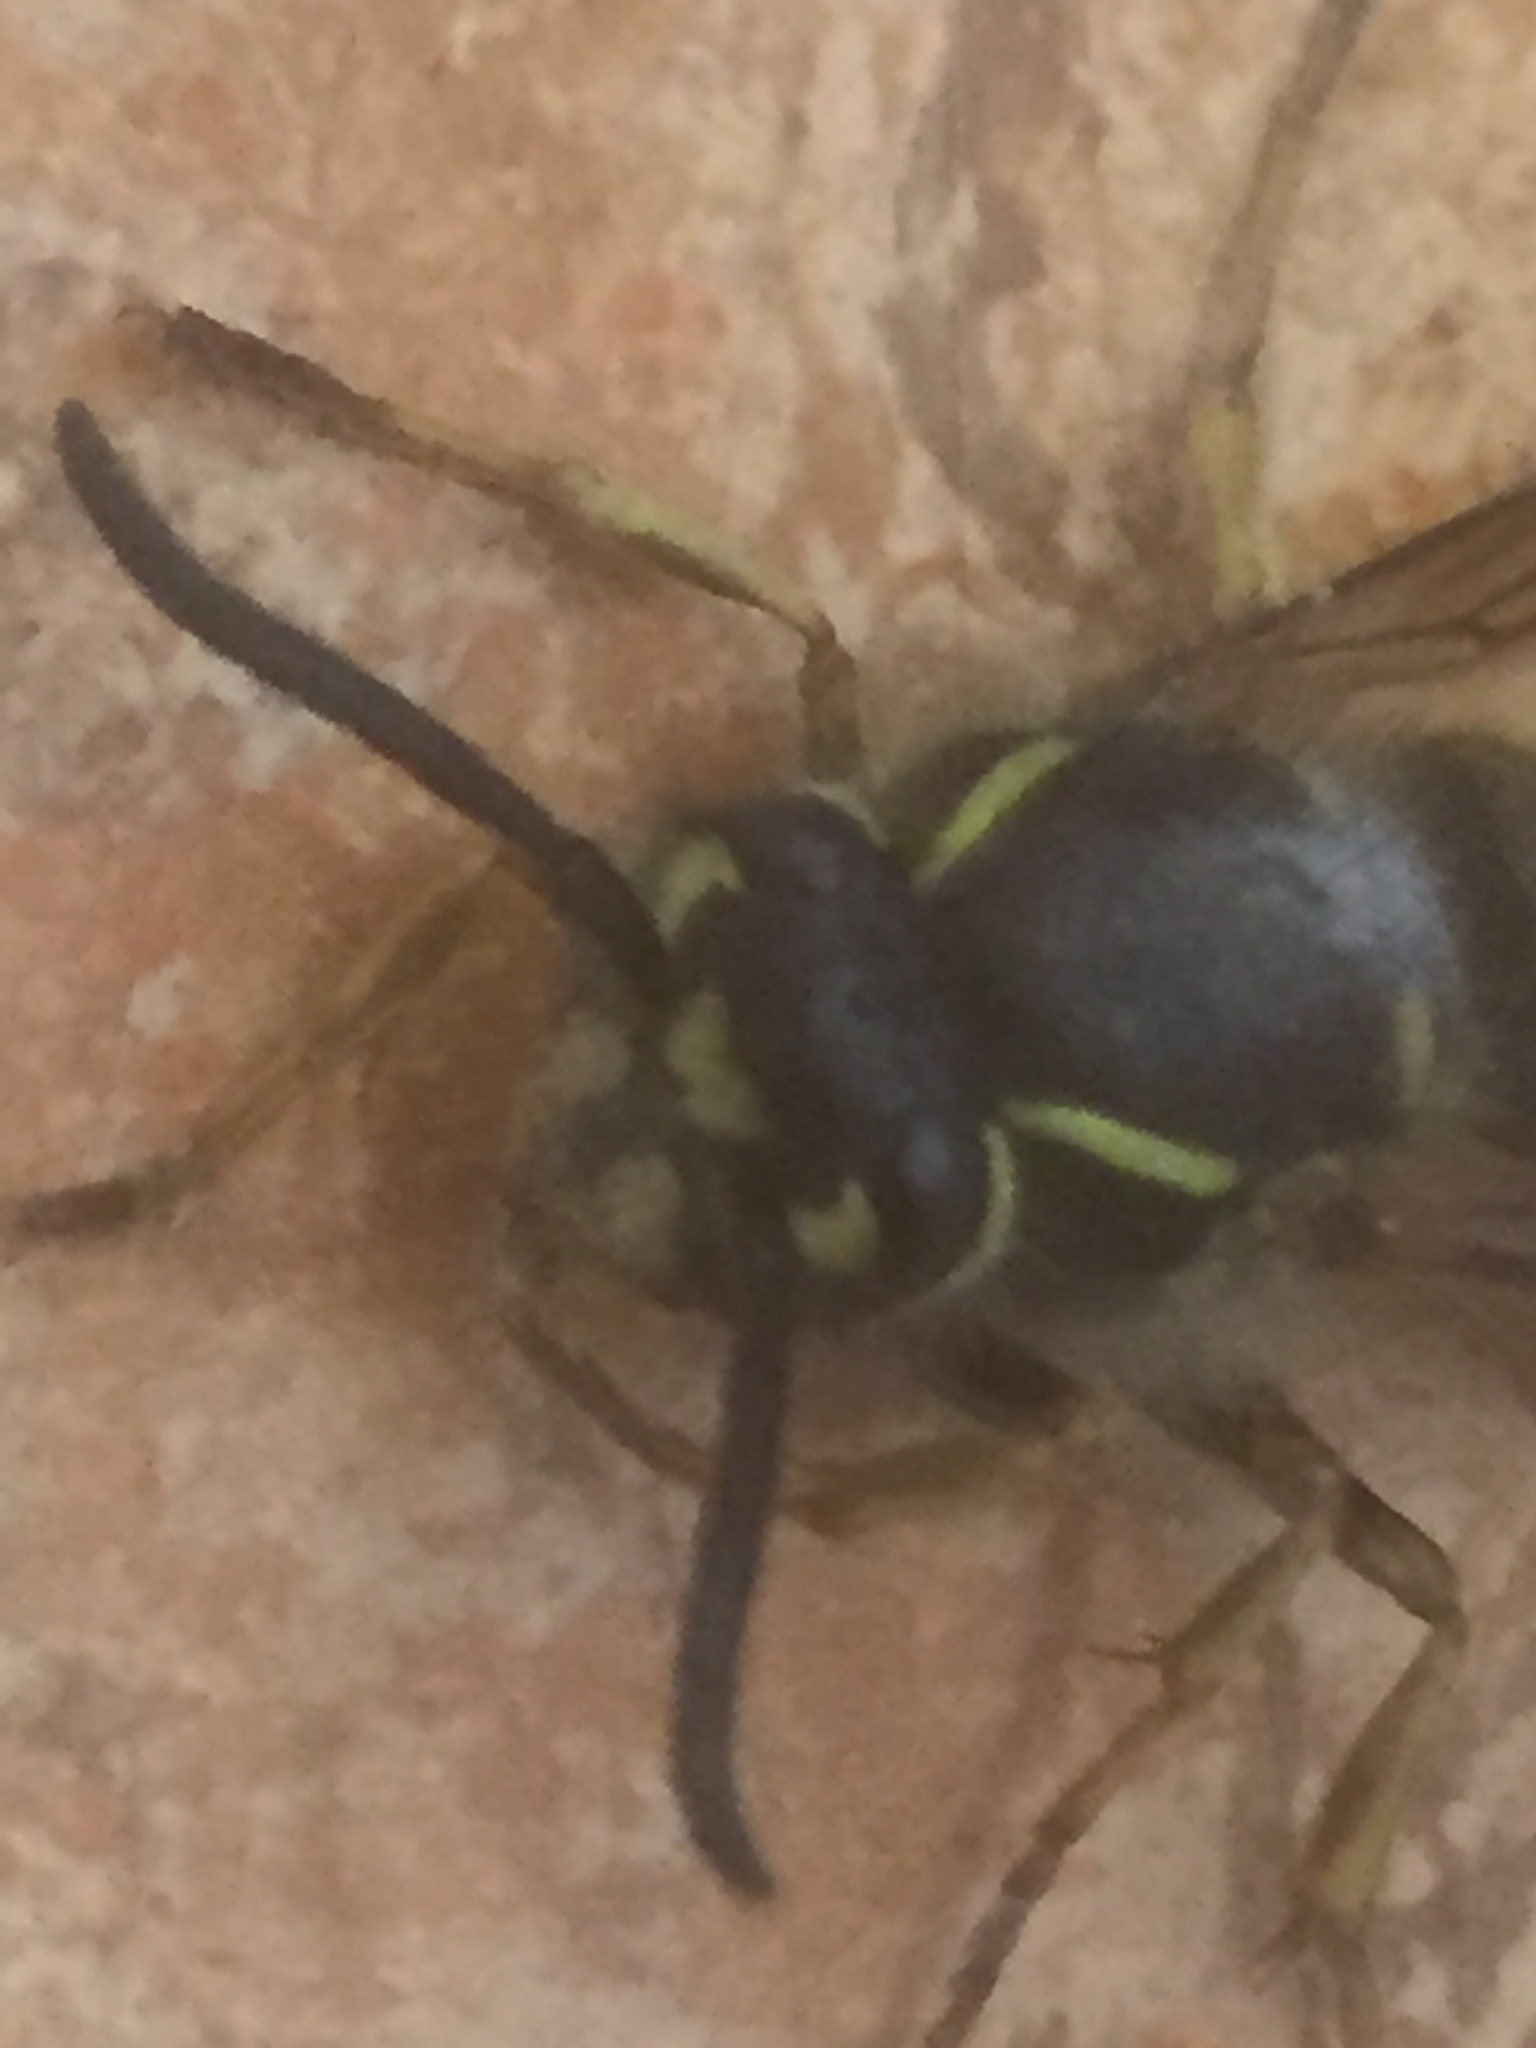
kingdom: Animalia
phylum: Arthropoda
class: Insecta
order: Hymenoptera
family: Vespidae
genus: Vespula
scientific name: Vespula vulgaris
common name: Common wasp
